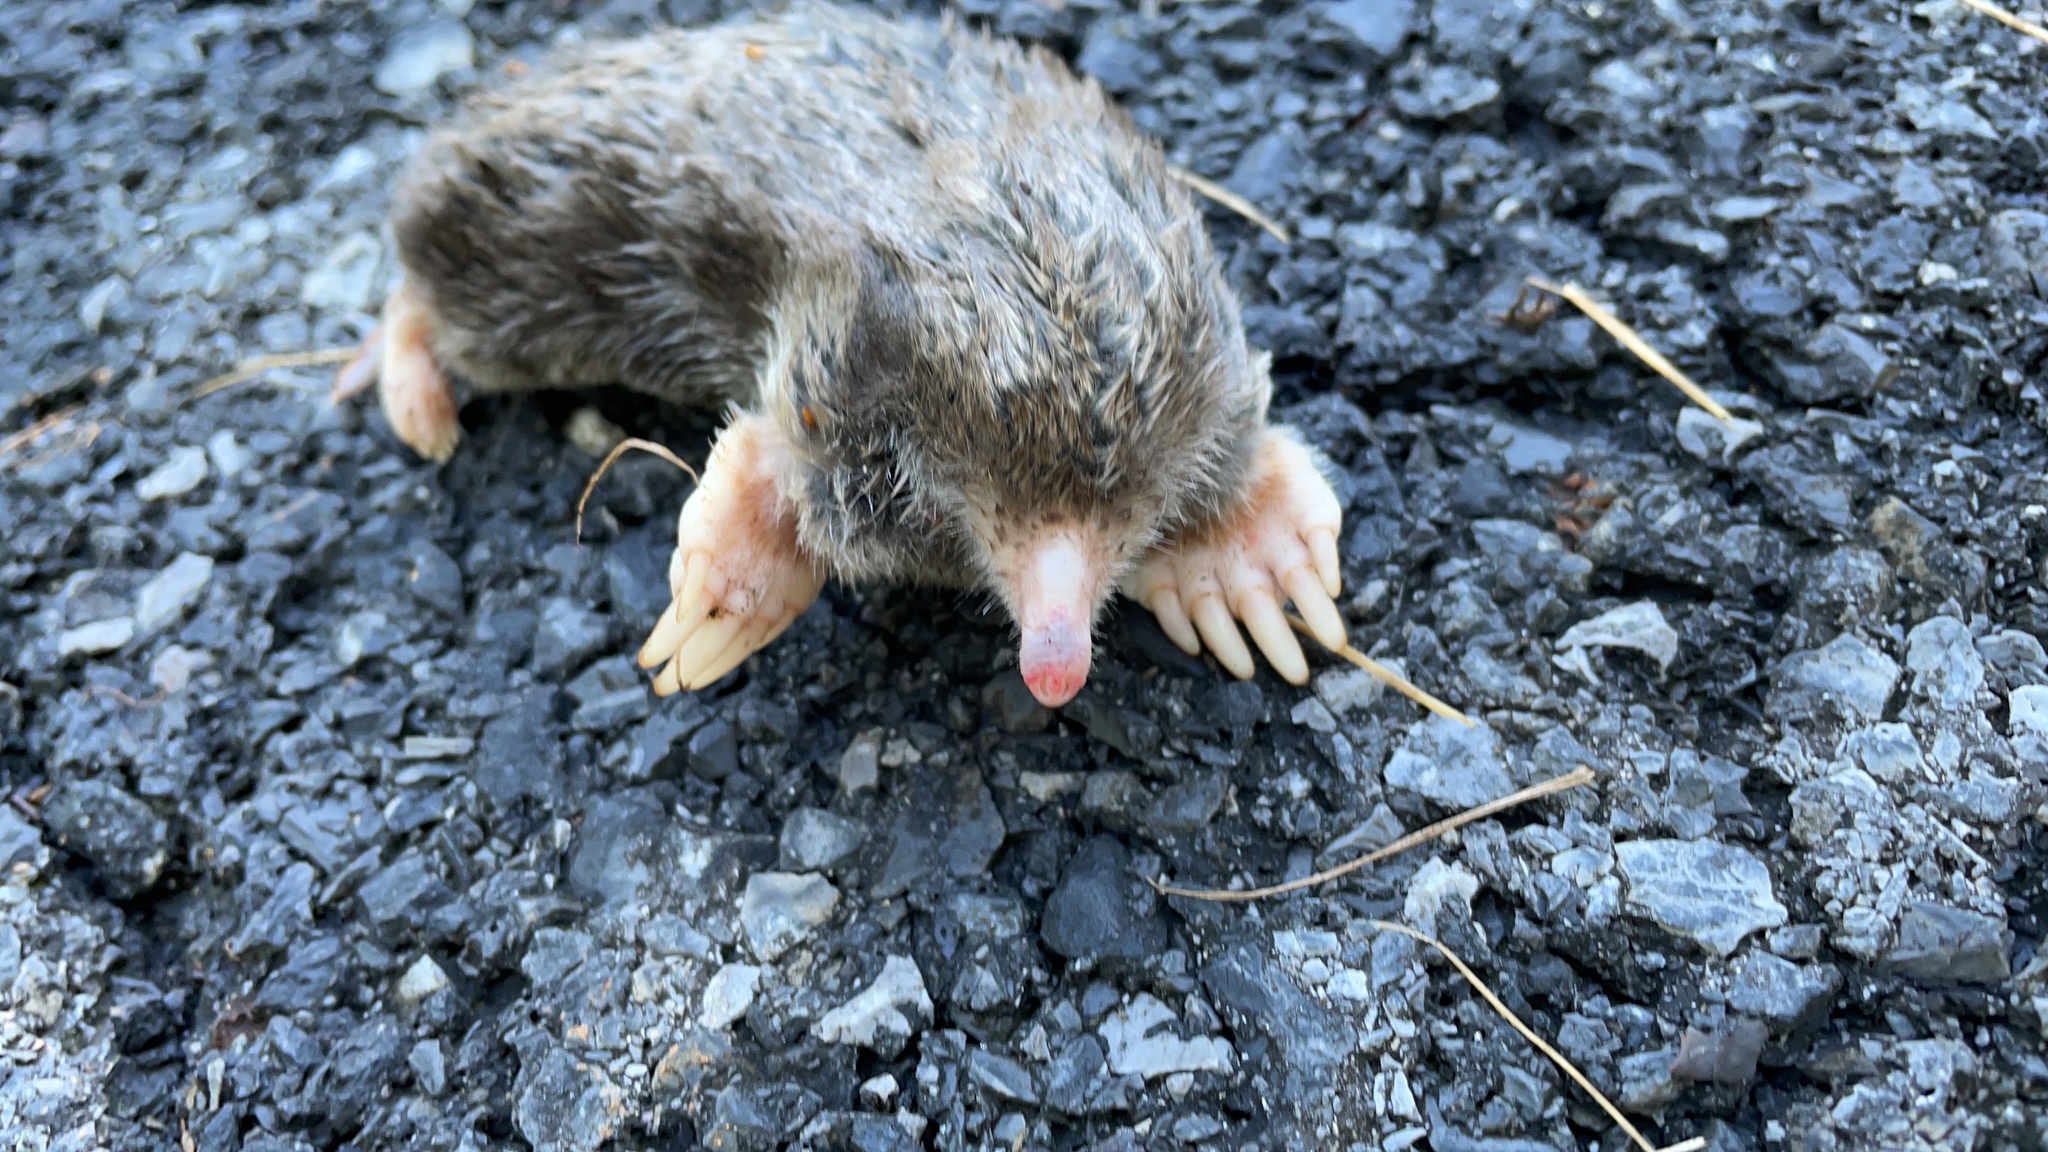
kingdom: Animalia
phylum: Chordata
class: Mammalia
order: Soricomorpha
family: Talpidae
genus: Scalopus
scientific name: Scalopus aquaticus
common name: Eastern mole
